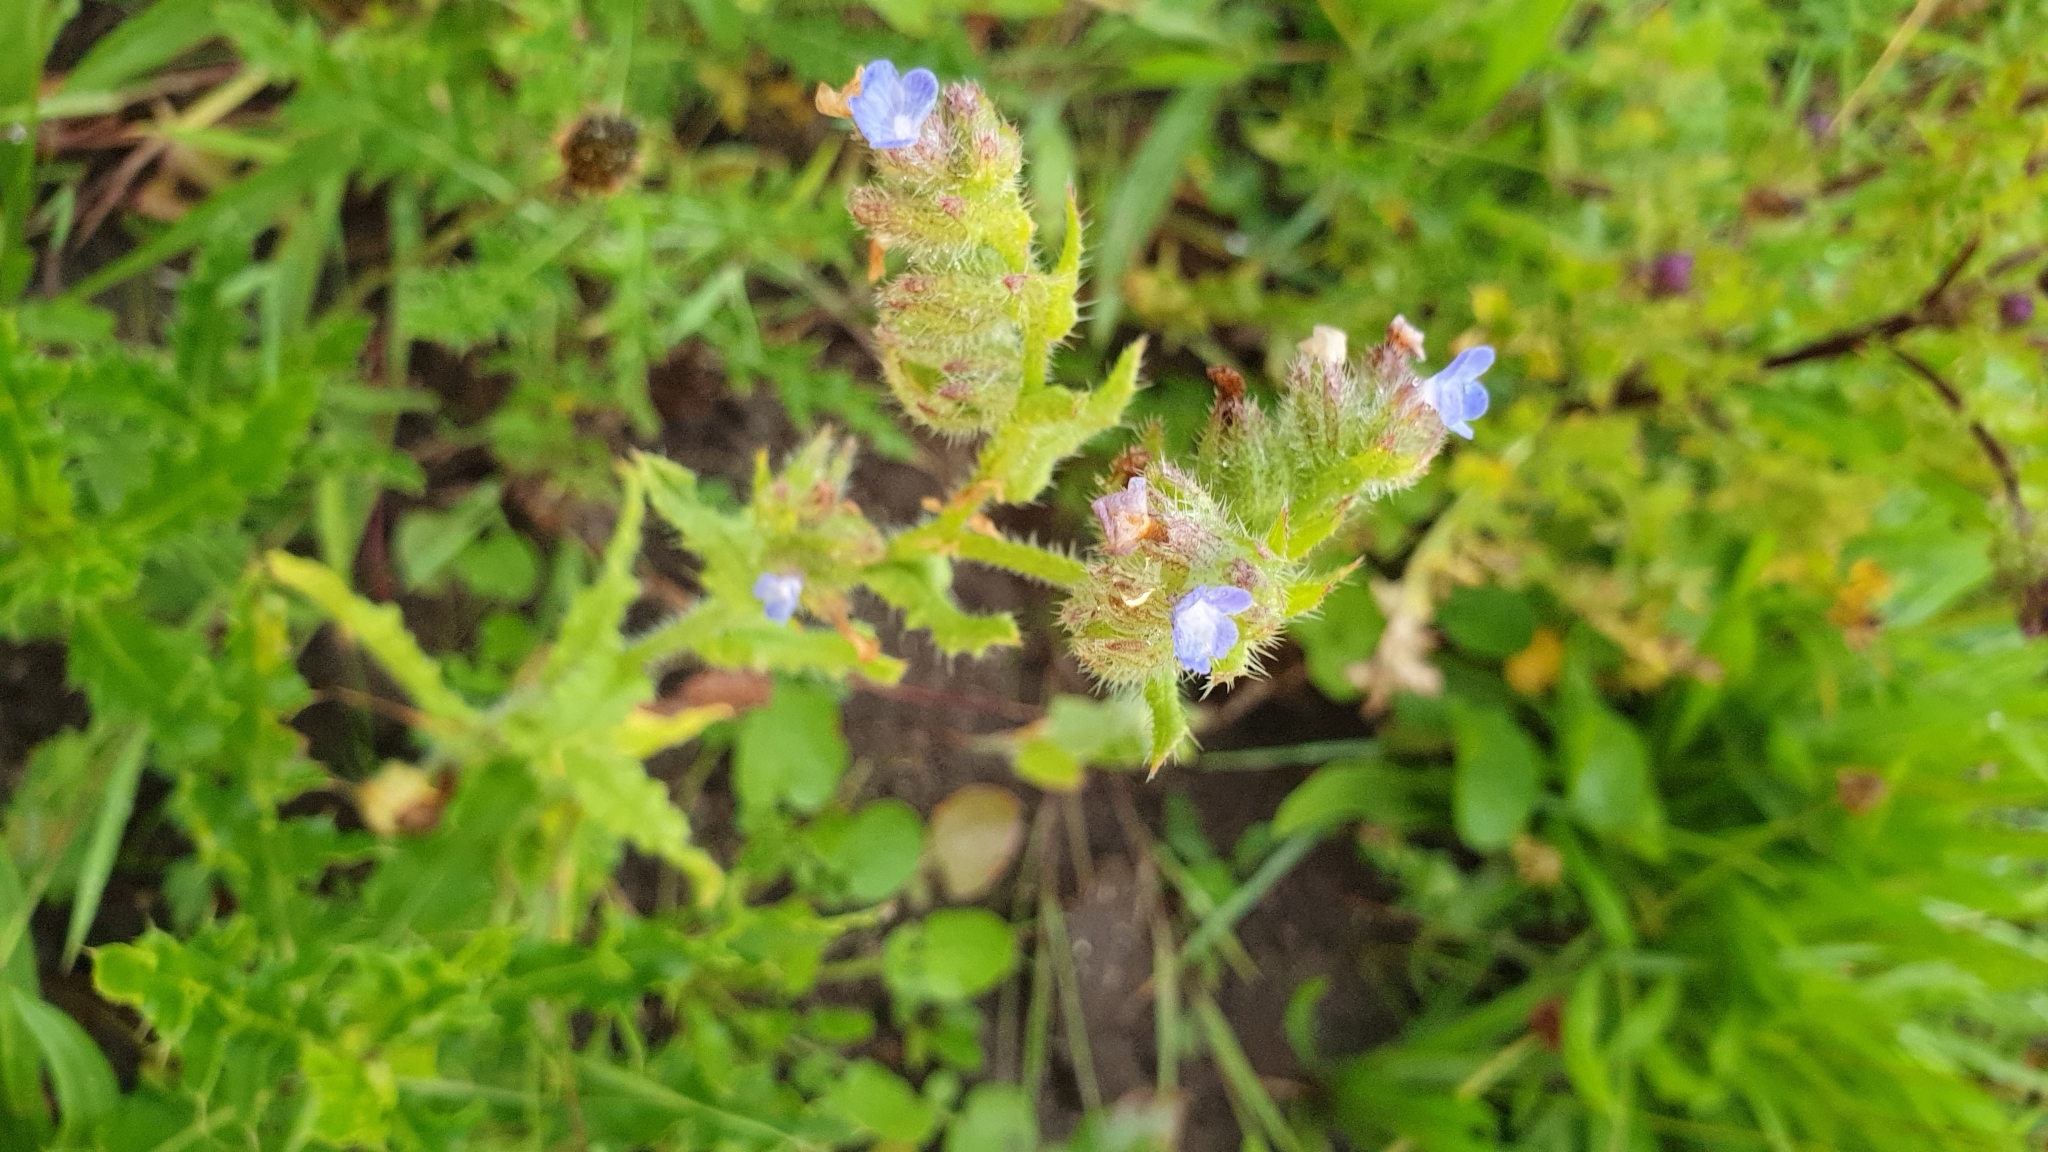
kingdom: Plantae
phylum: Tracheophyta
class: Magnoliopsida
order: Boraginales
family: Boraginaceae
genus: Lycopsis
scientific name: Lycopsis arvensis
